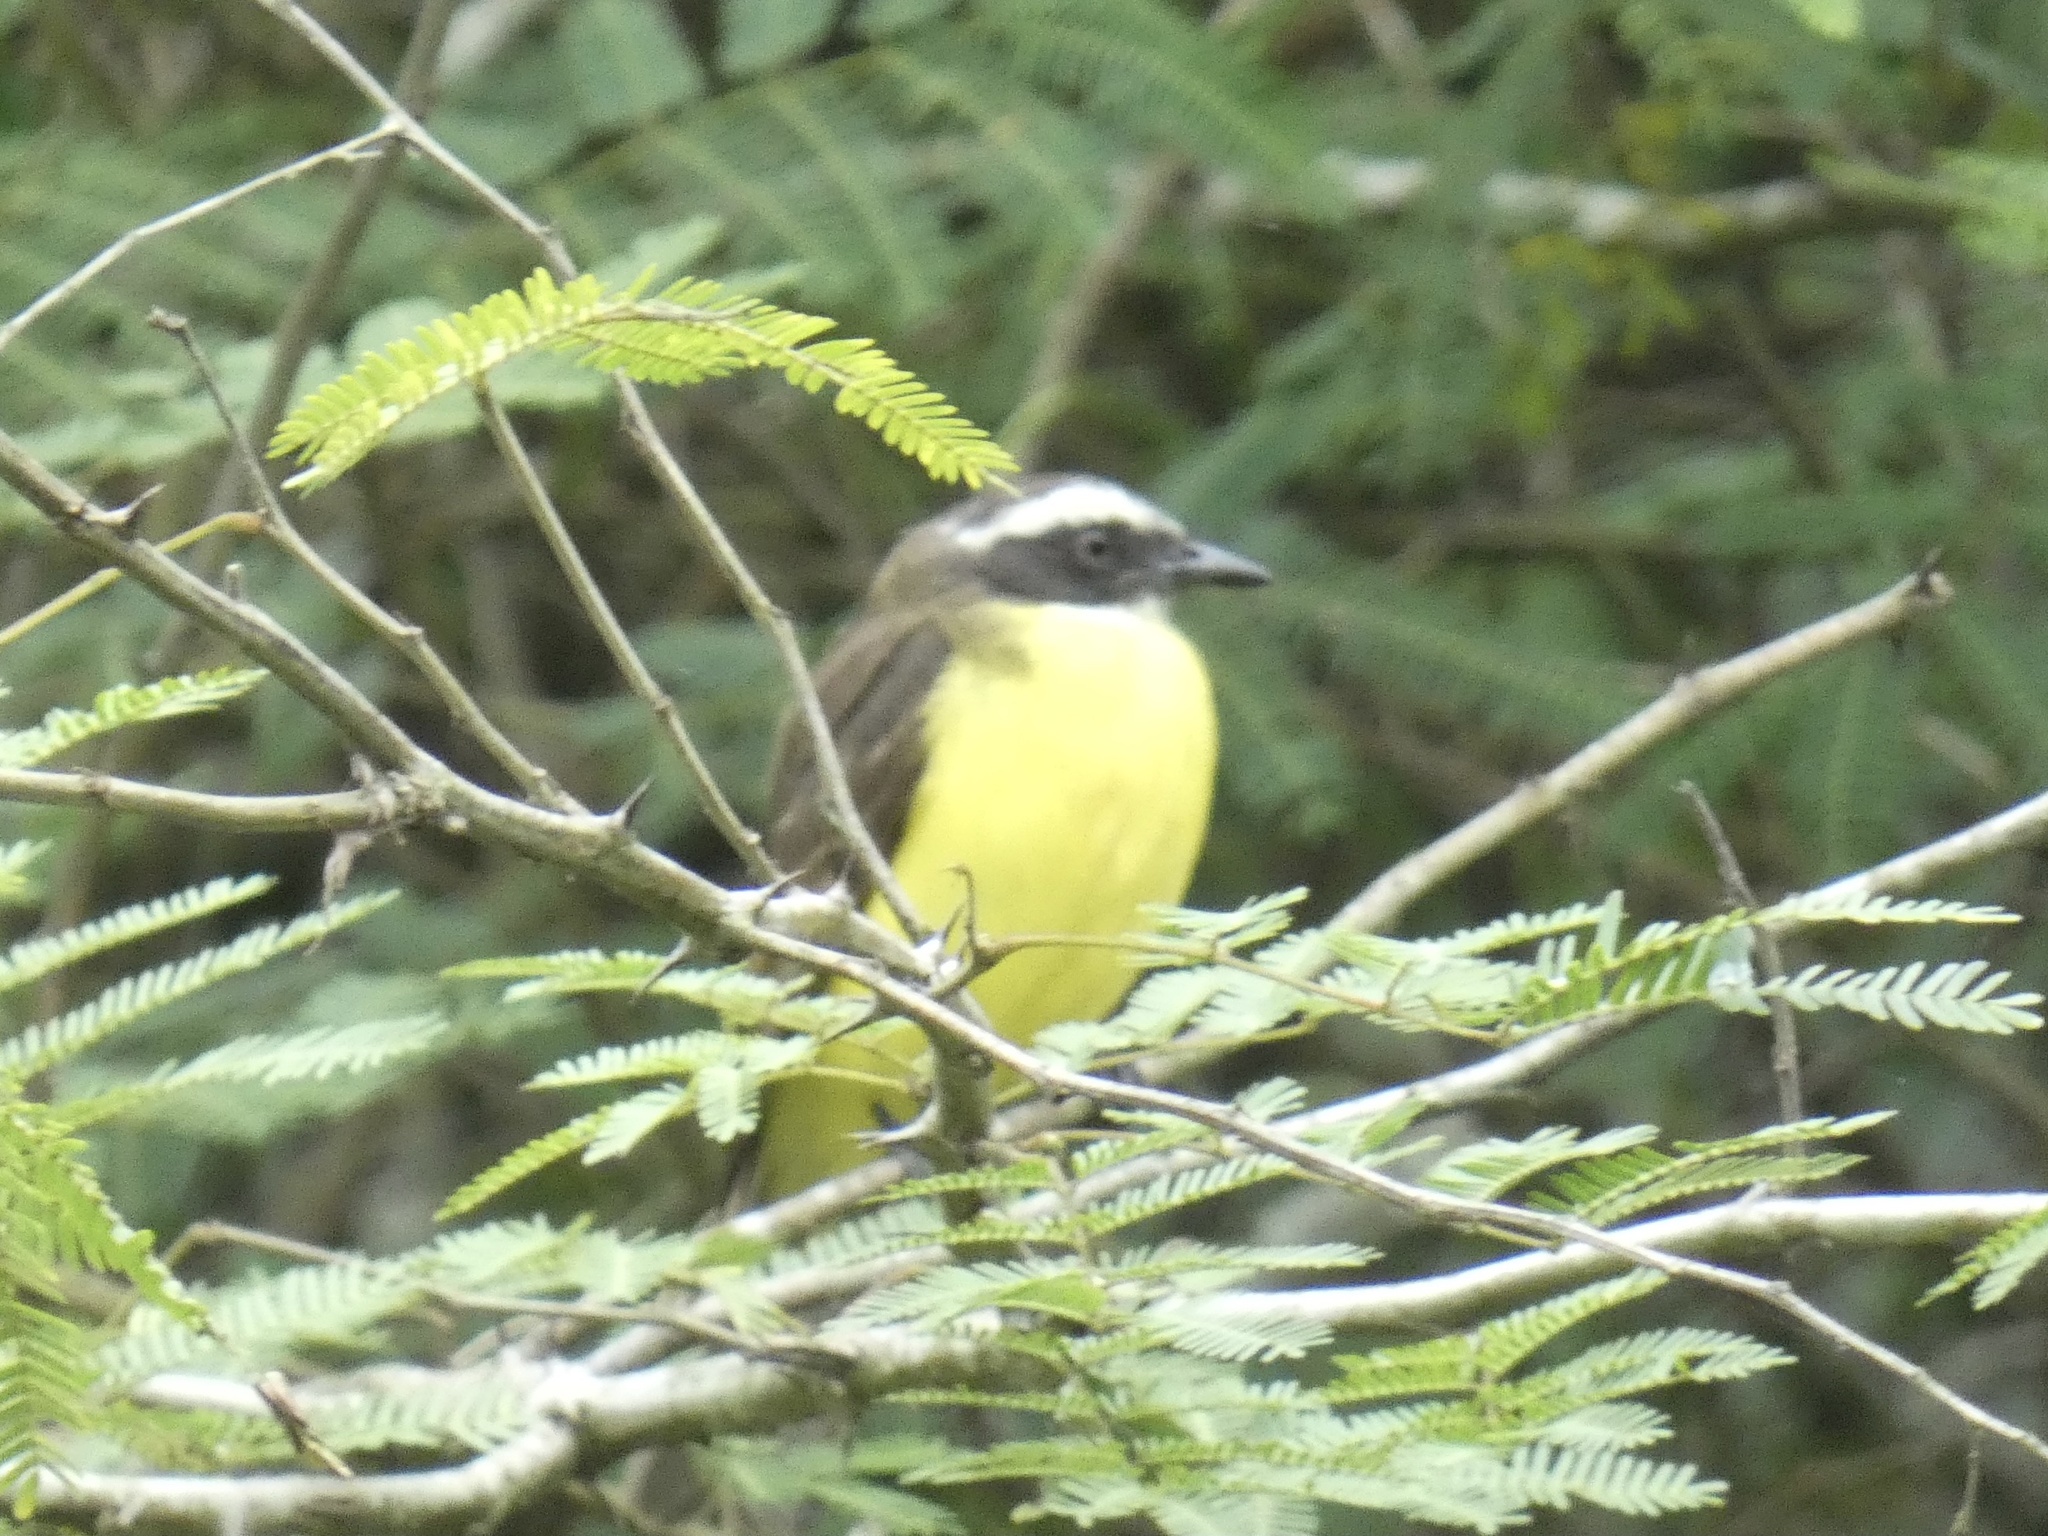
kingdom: Animalia
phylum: Chordata
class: Aves
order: Passeriformes
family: Tyrannidae
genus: Myiozetetes
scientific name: Myiozetetes similis
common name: Social flycatcher
